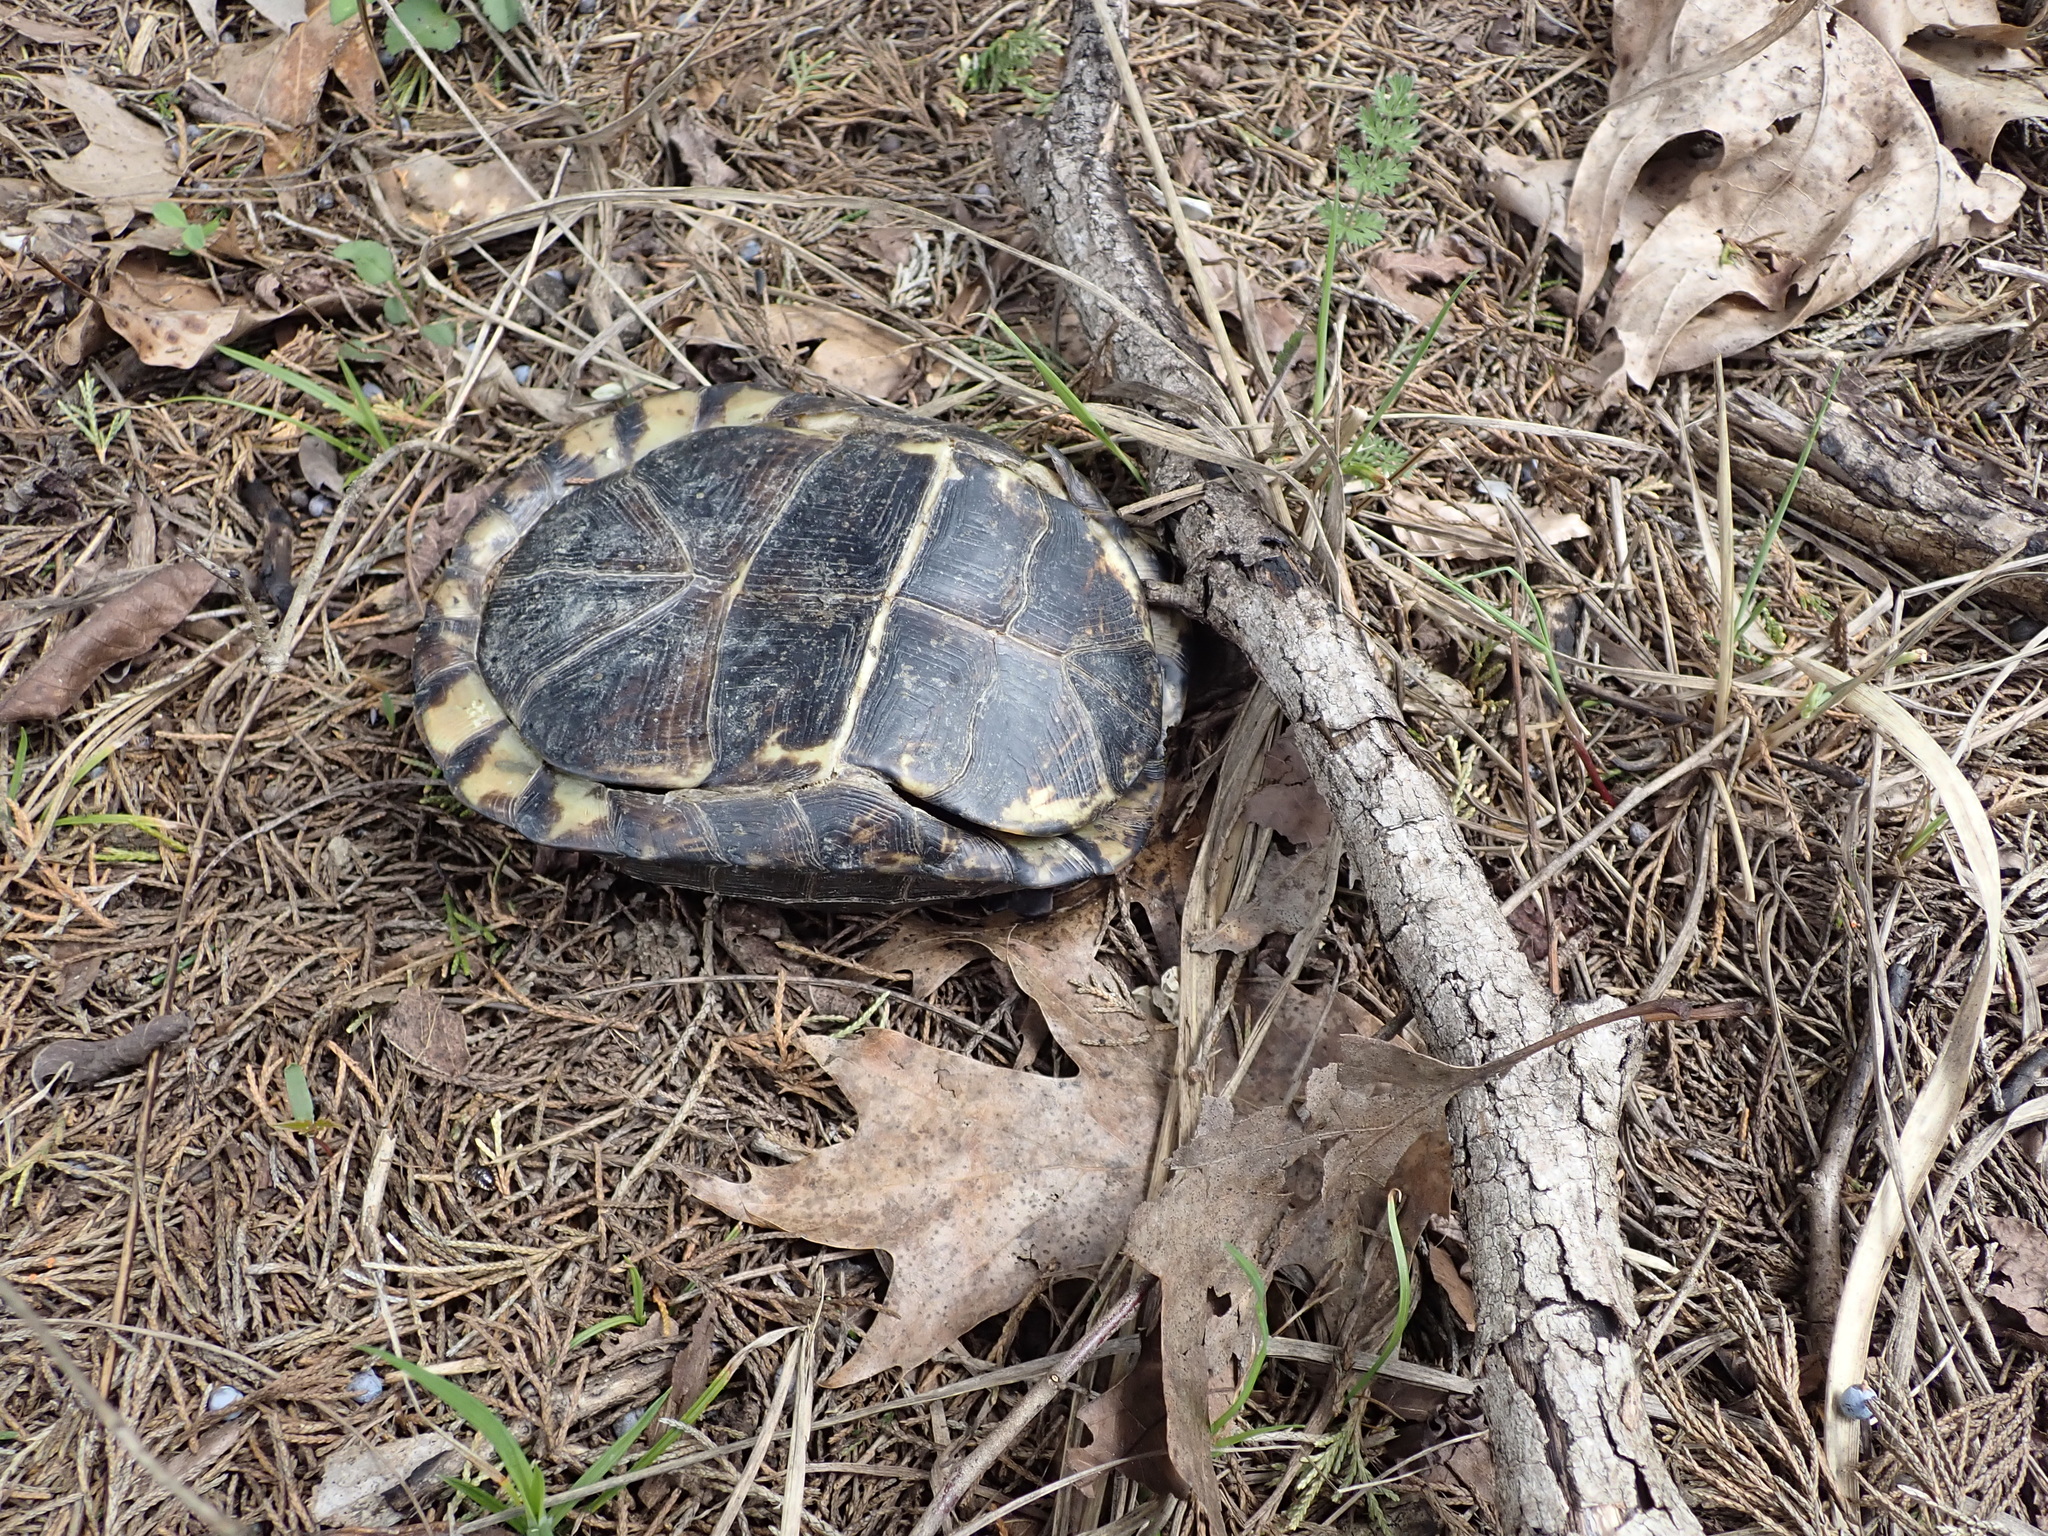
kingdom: Animalia
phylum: Chordata
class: Testudines
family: Emydidae
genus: Terrapene
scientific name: Terrapene carolina
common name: Common box turtle
